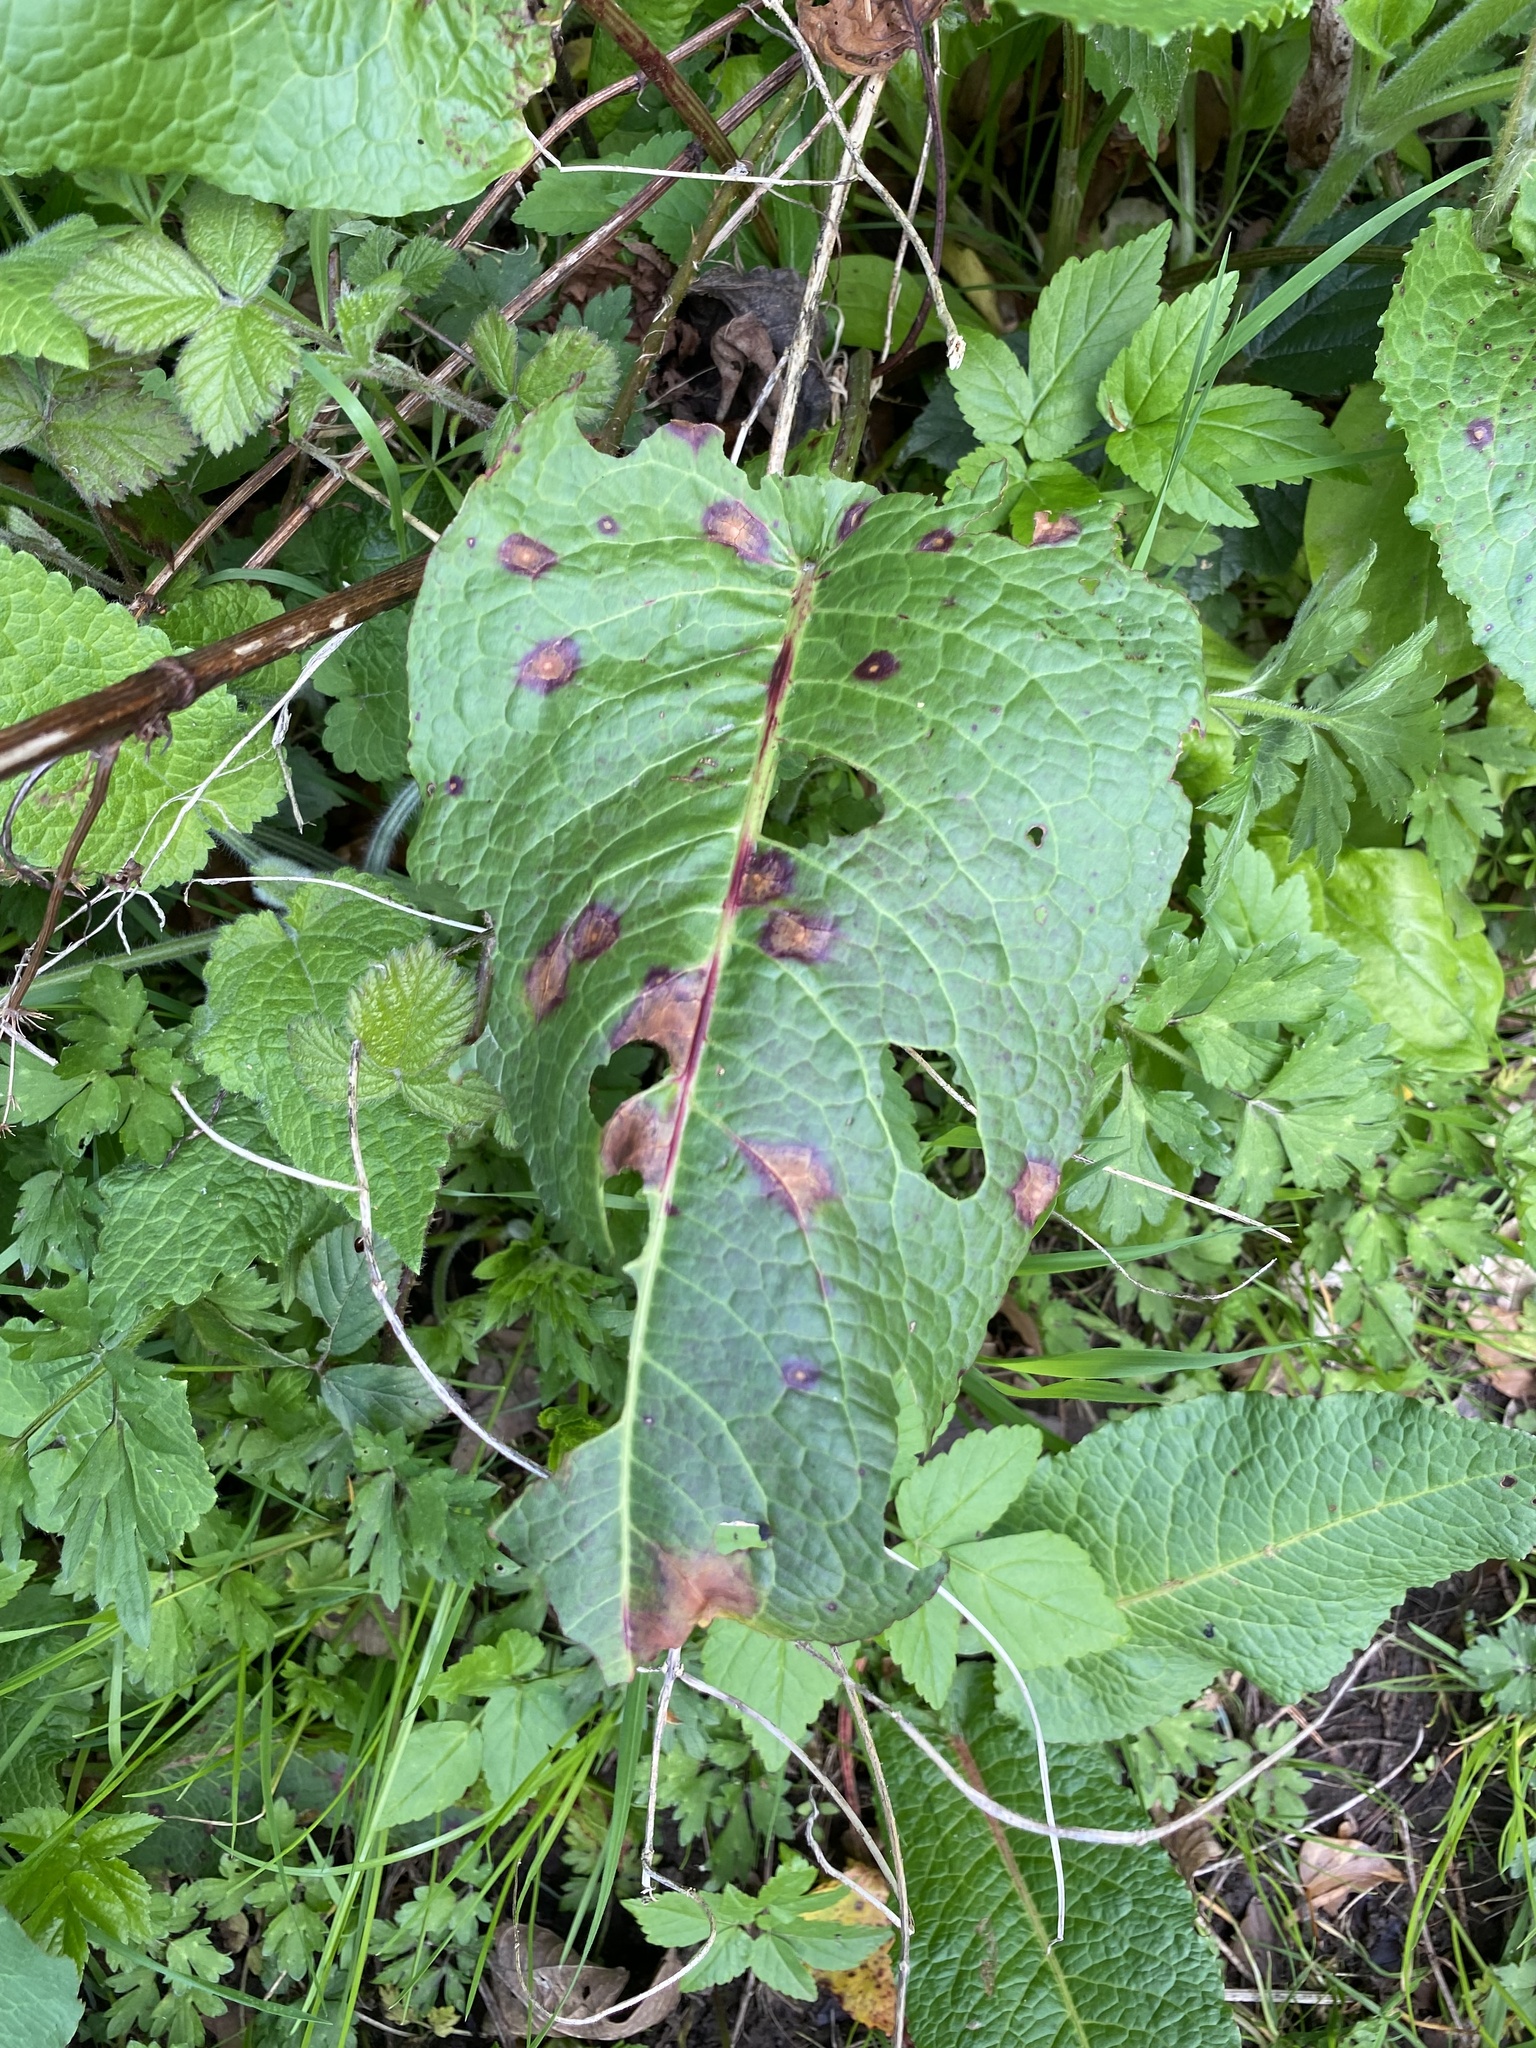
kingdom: Plantae
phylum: Tracheophyta
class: Magnoliopsida
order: Caryophyllales
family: Polygonaceae
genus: Rumex
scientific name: Rumex obtusifolius
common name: Bitter dock
